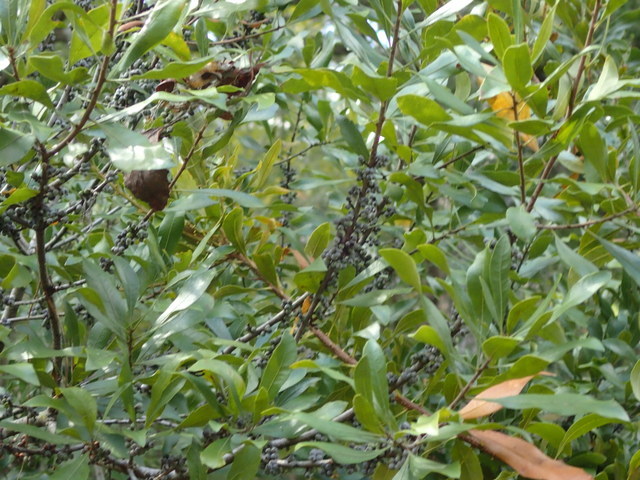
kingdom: Plantae
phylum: Tracheophyta
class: Magnoliopsida
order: Fagales
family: Myricaceae
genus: Morella
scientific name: Morella cerifera
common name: Wax myrtle
